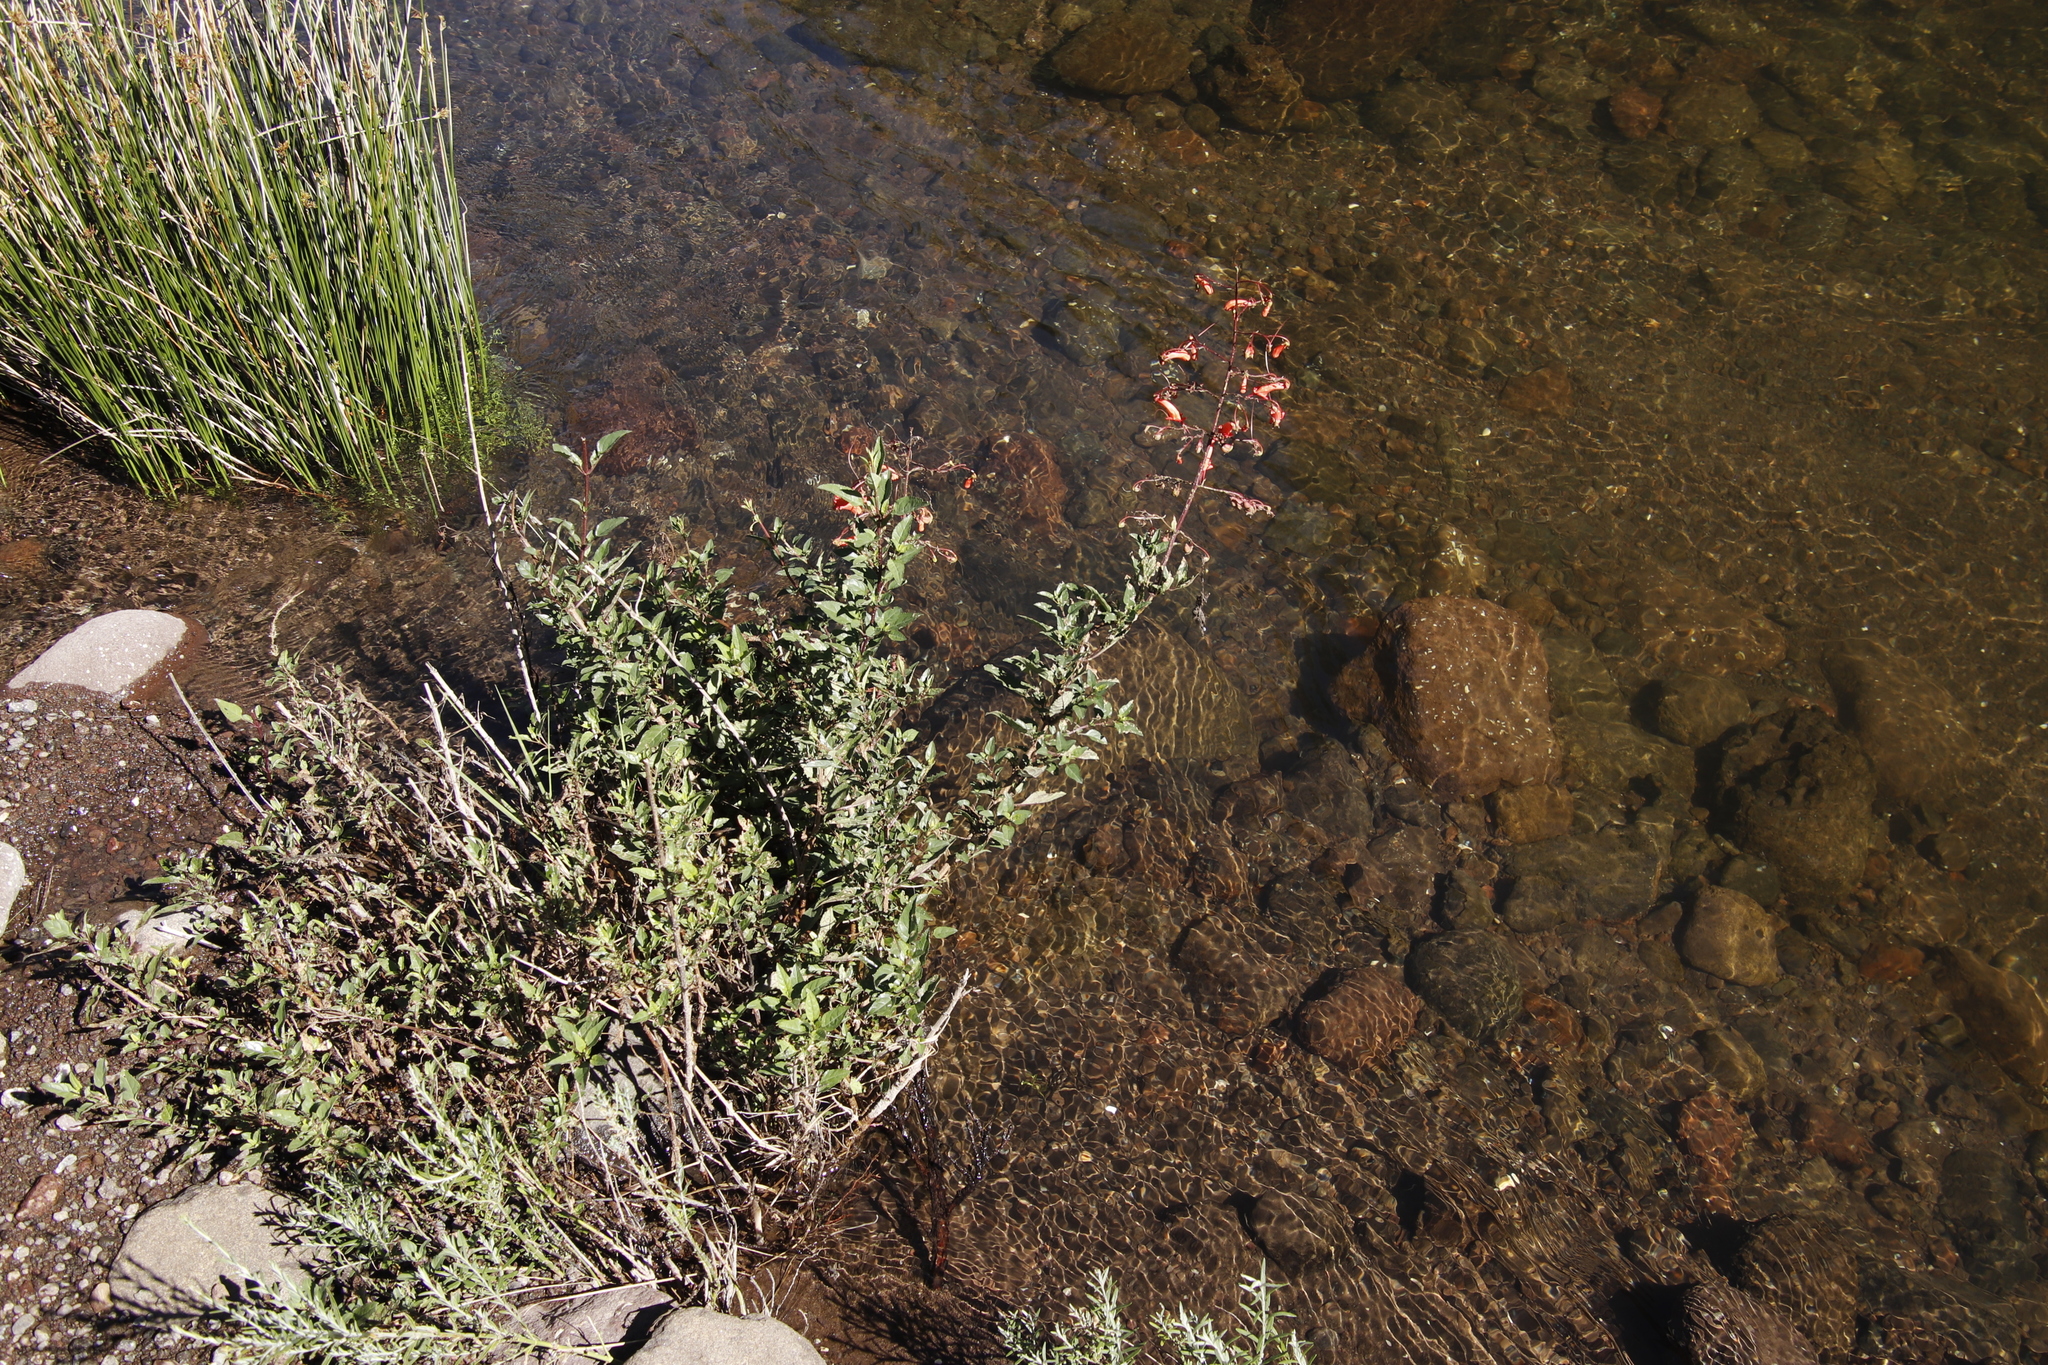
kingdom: Plantae
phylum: Tracheophyta
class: Magnoliopsida
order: Lamiales
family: Scrophulariaceae
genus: Phygelius
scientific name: Phygelius capensis
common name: Cape figwort
